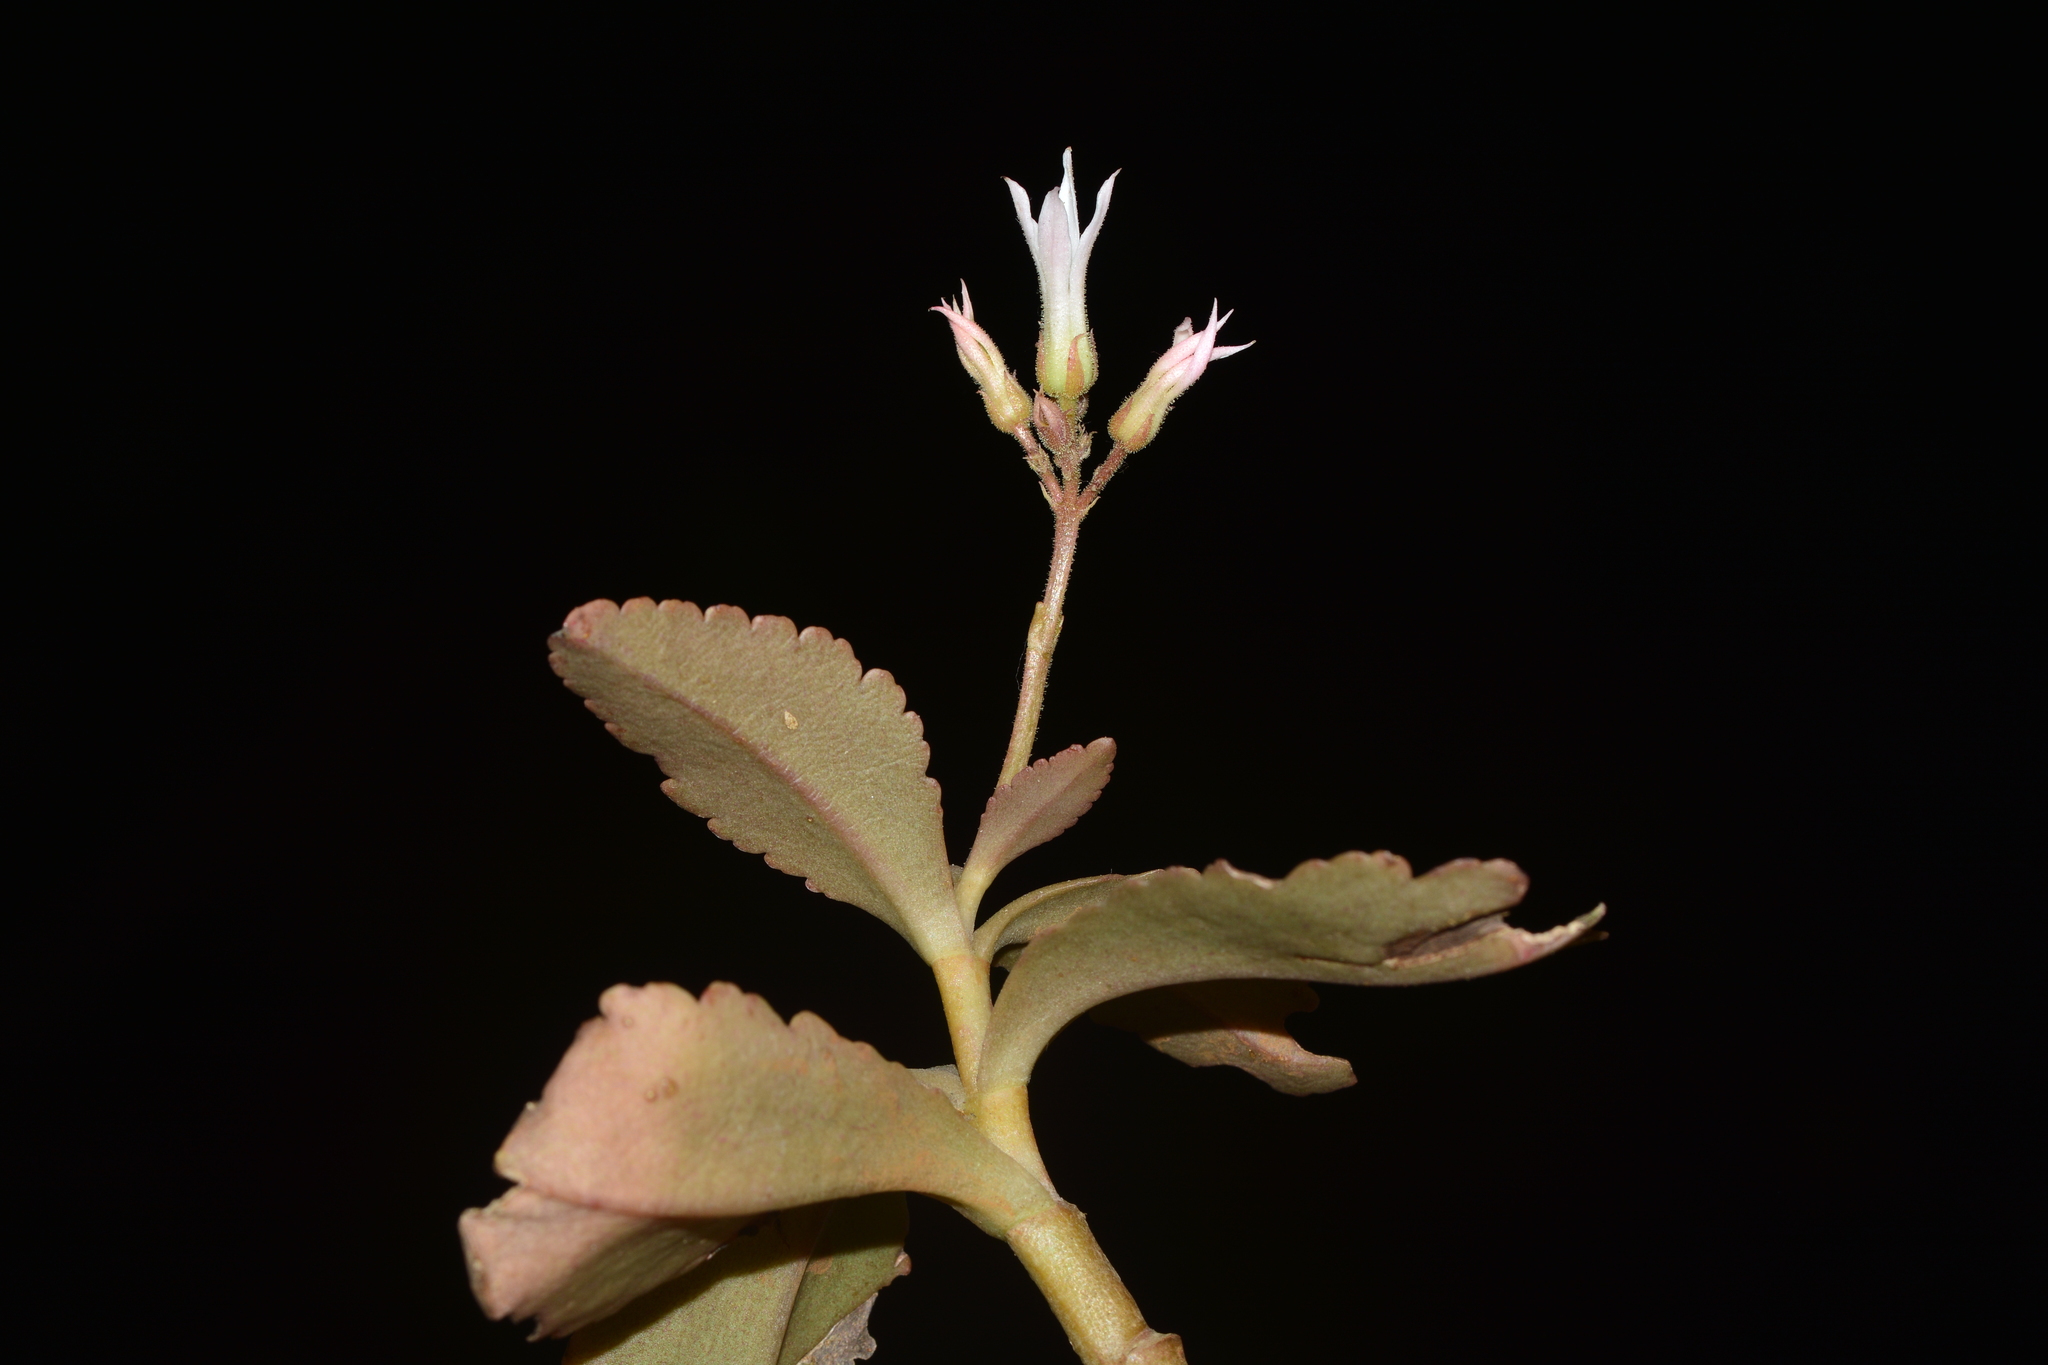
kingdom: Plantae
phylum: Tracheophyta
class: Magnoliopsida
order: Saxifragales
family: Crassulaceae
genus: Kalanchoe
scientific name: Kalanchoe olivacea
